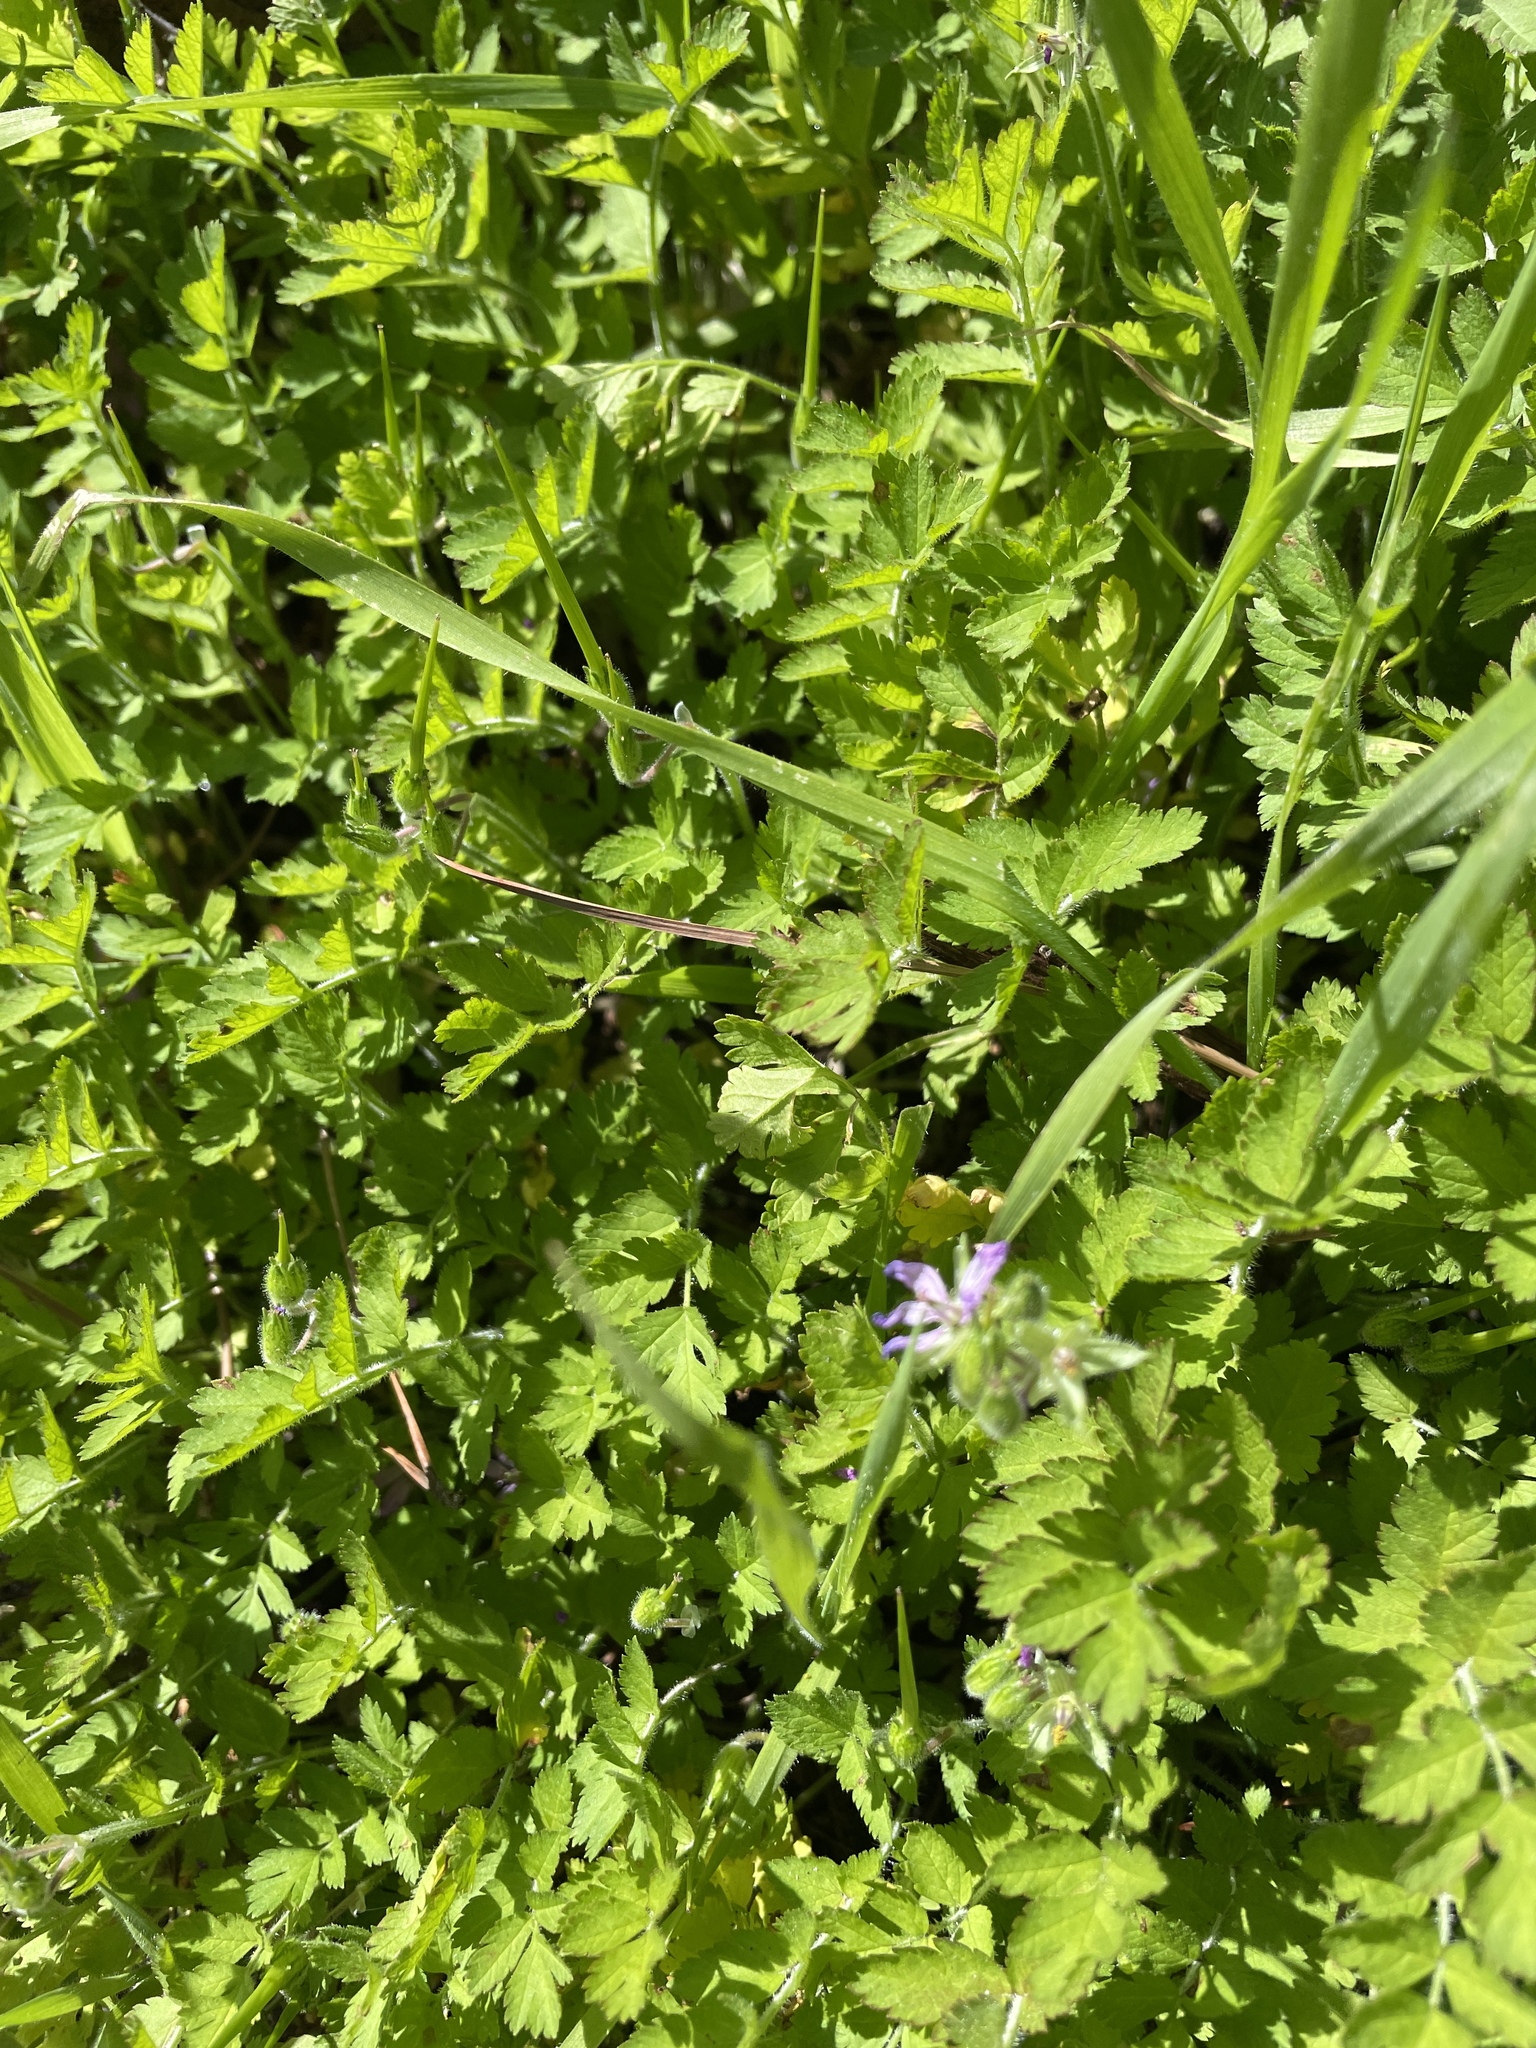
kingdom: Plantae
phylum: Tracheophyta
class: Magnoliopsida
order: Geraniales
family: Geraniaceae
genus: Erodium
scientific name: Erodium moschatum
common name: Musk stork's-bill
